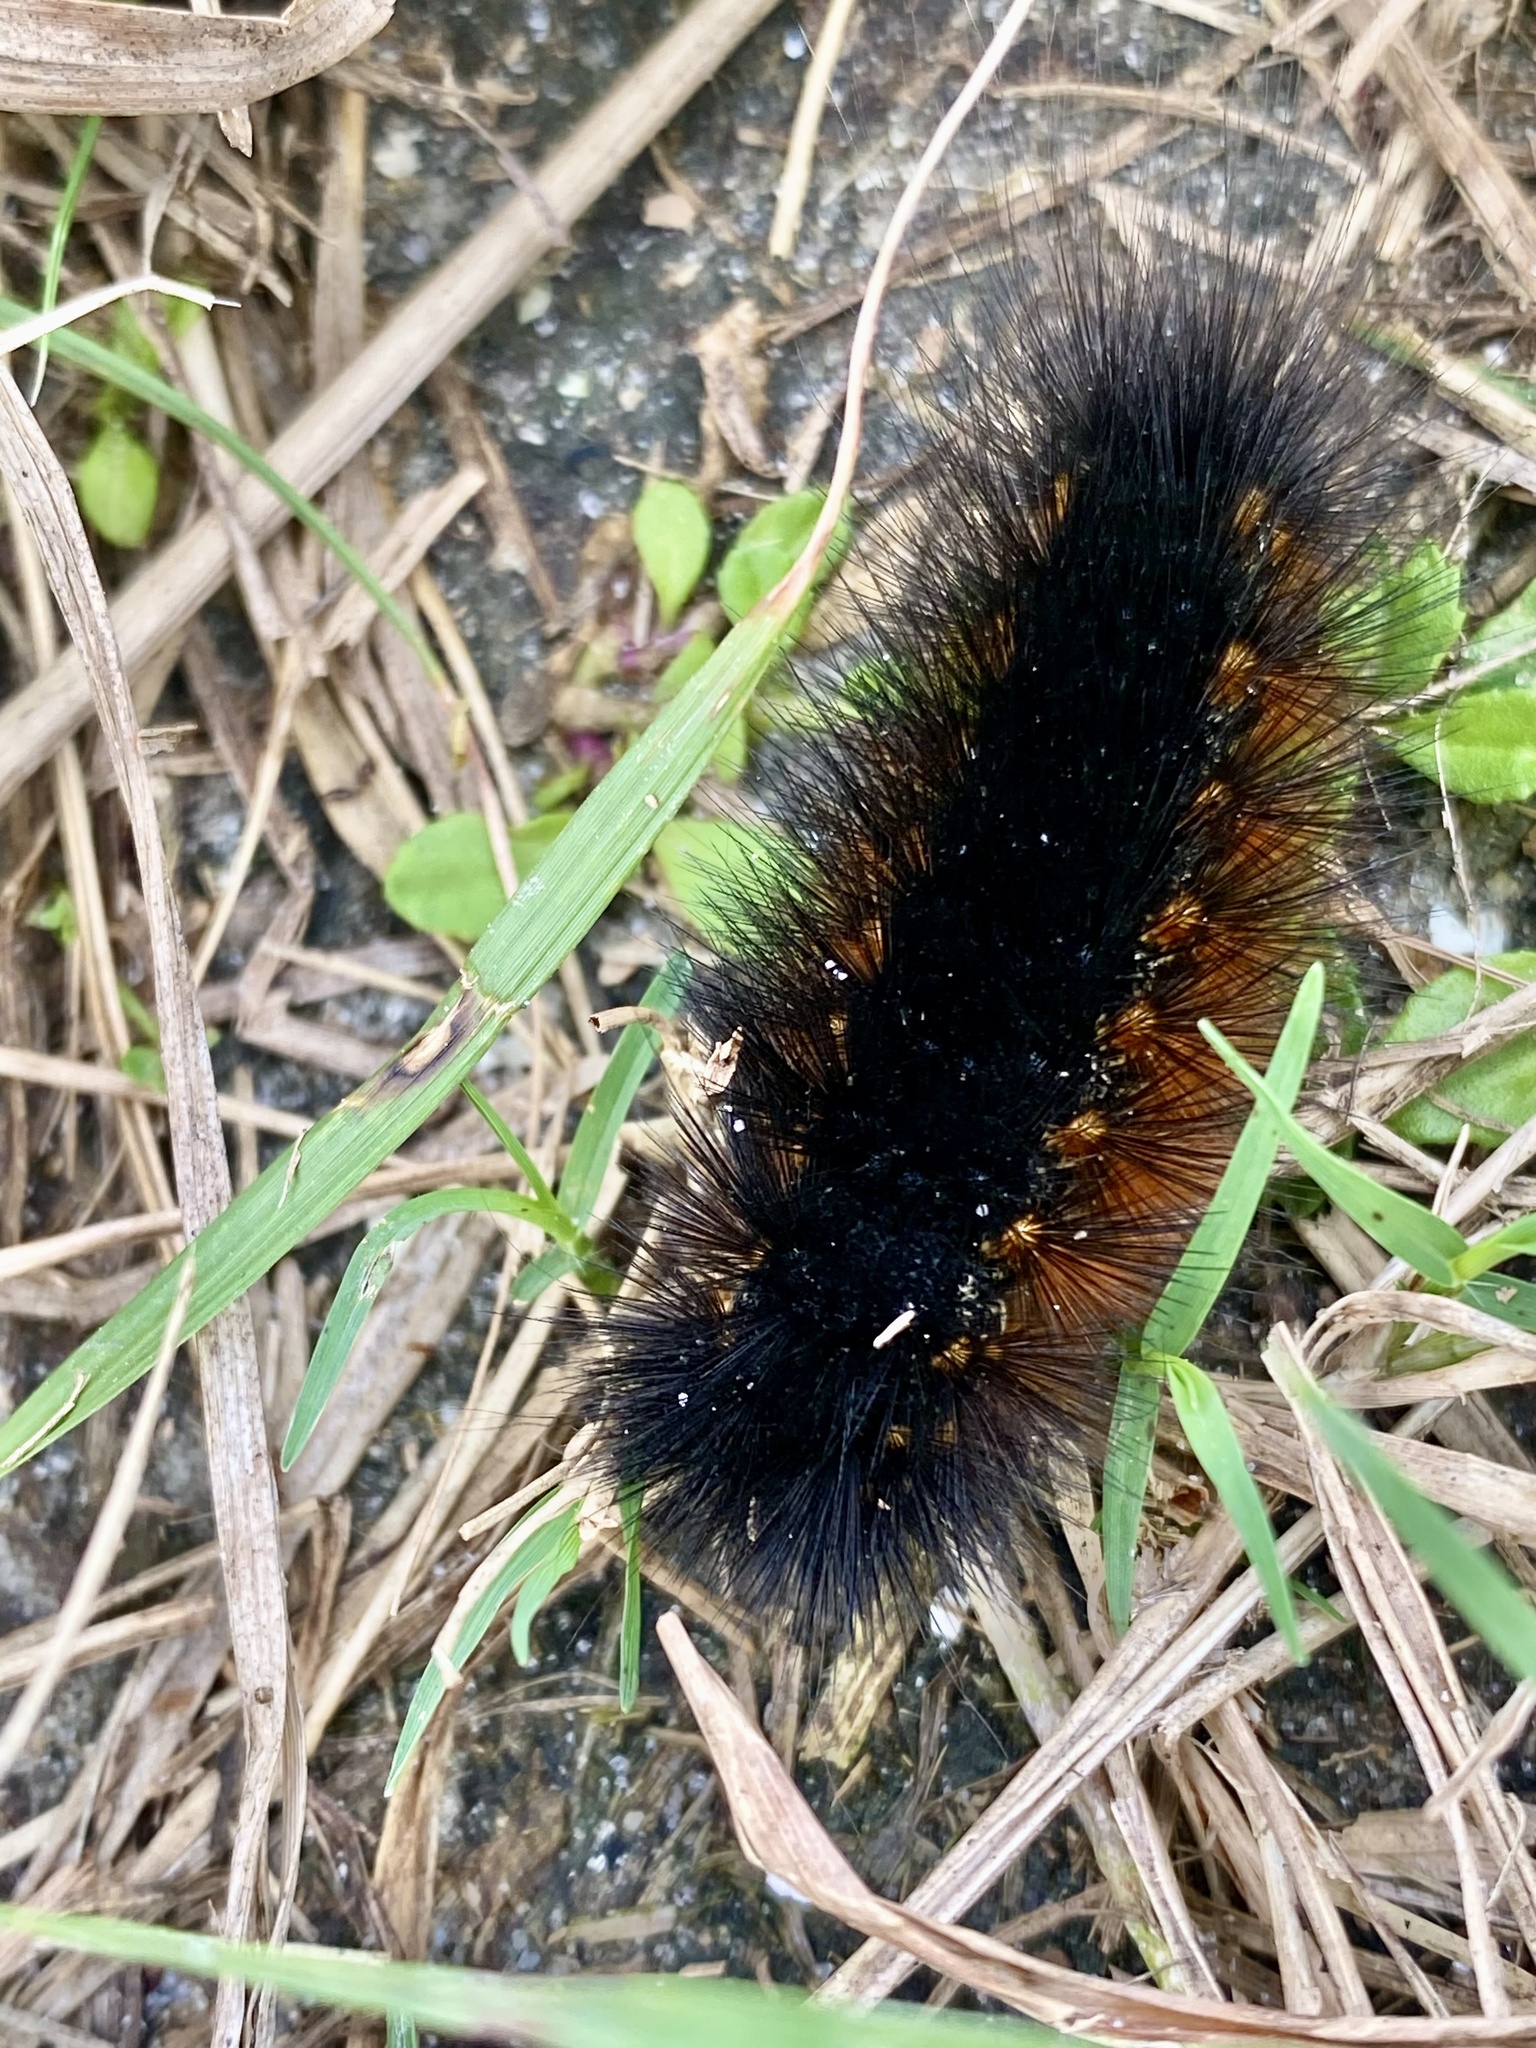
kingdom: Animalia
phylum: Arthropoda
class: Insecta
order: Lepidoptera
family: Erebidae
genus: Estigmene
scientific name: Estigmene acrea
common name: Salt marsh moth
